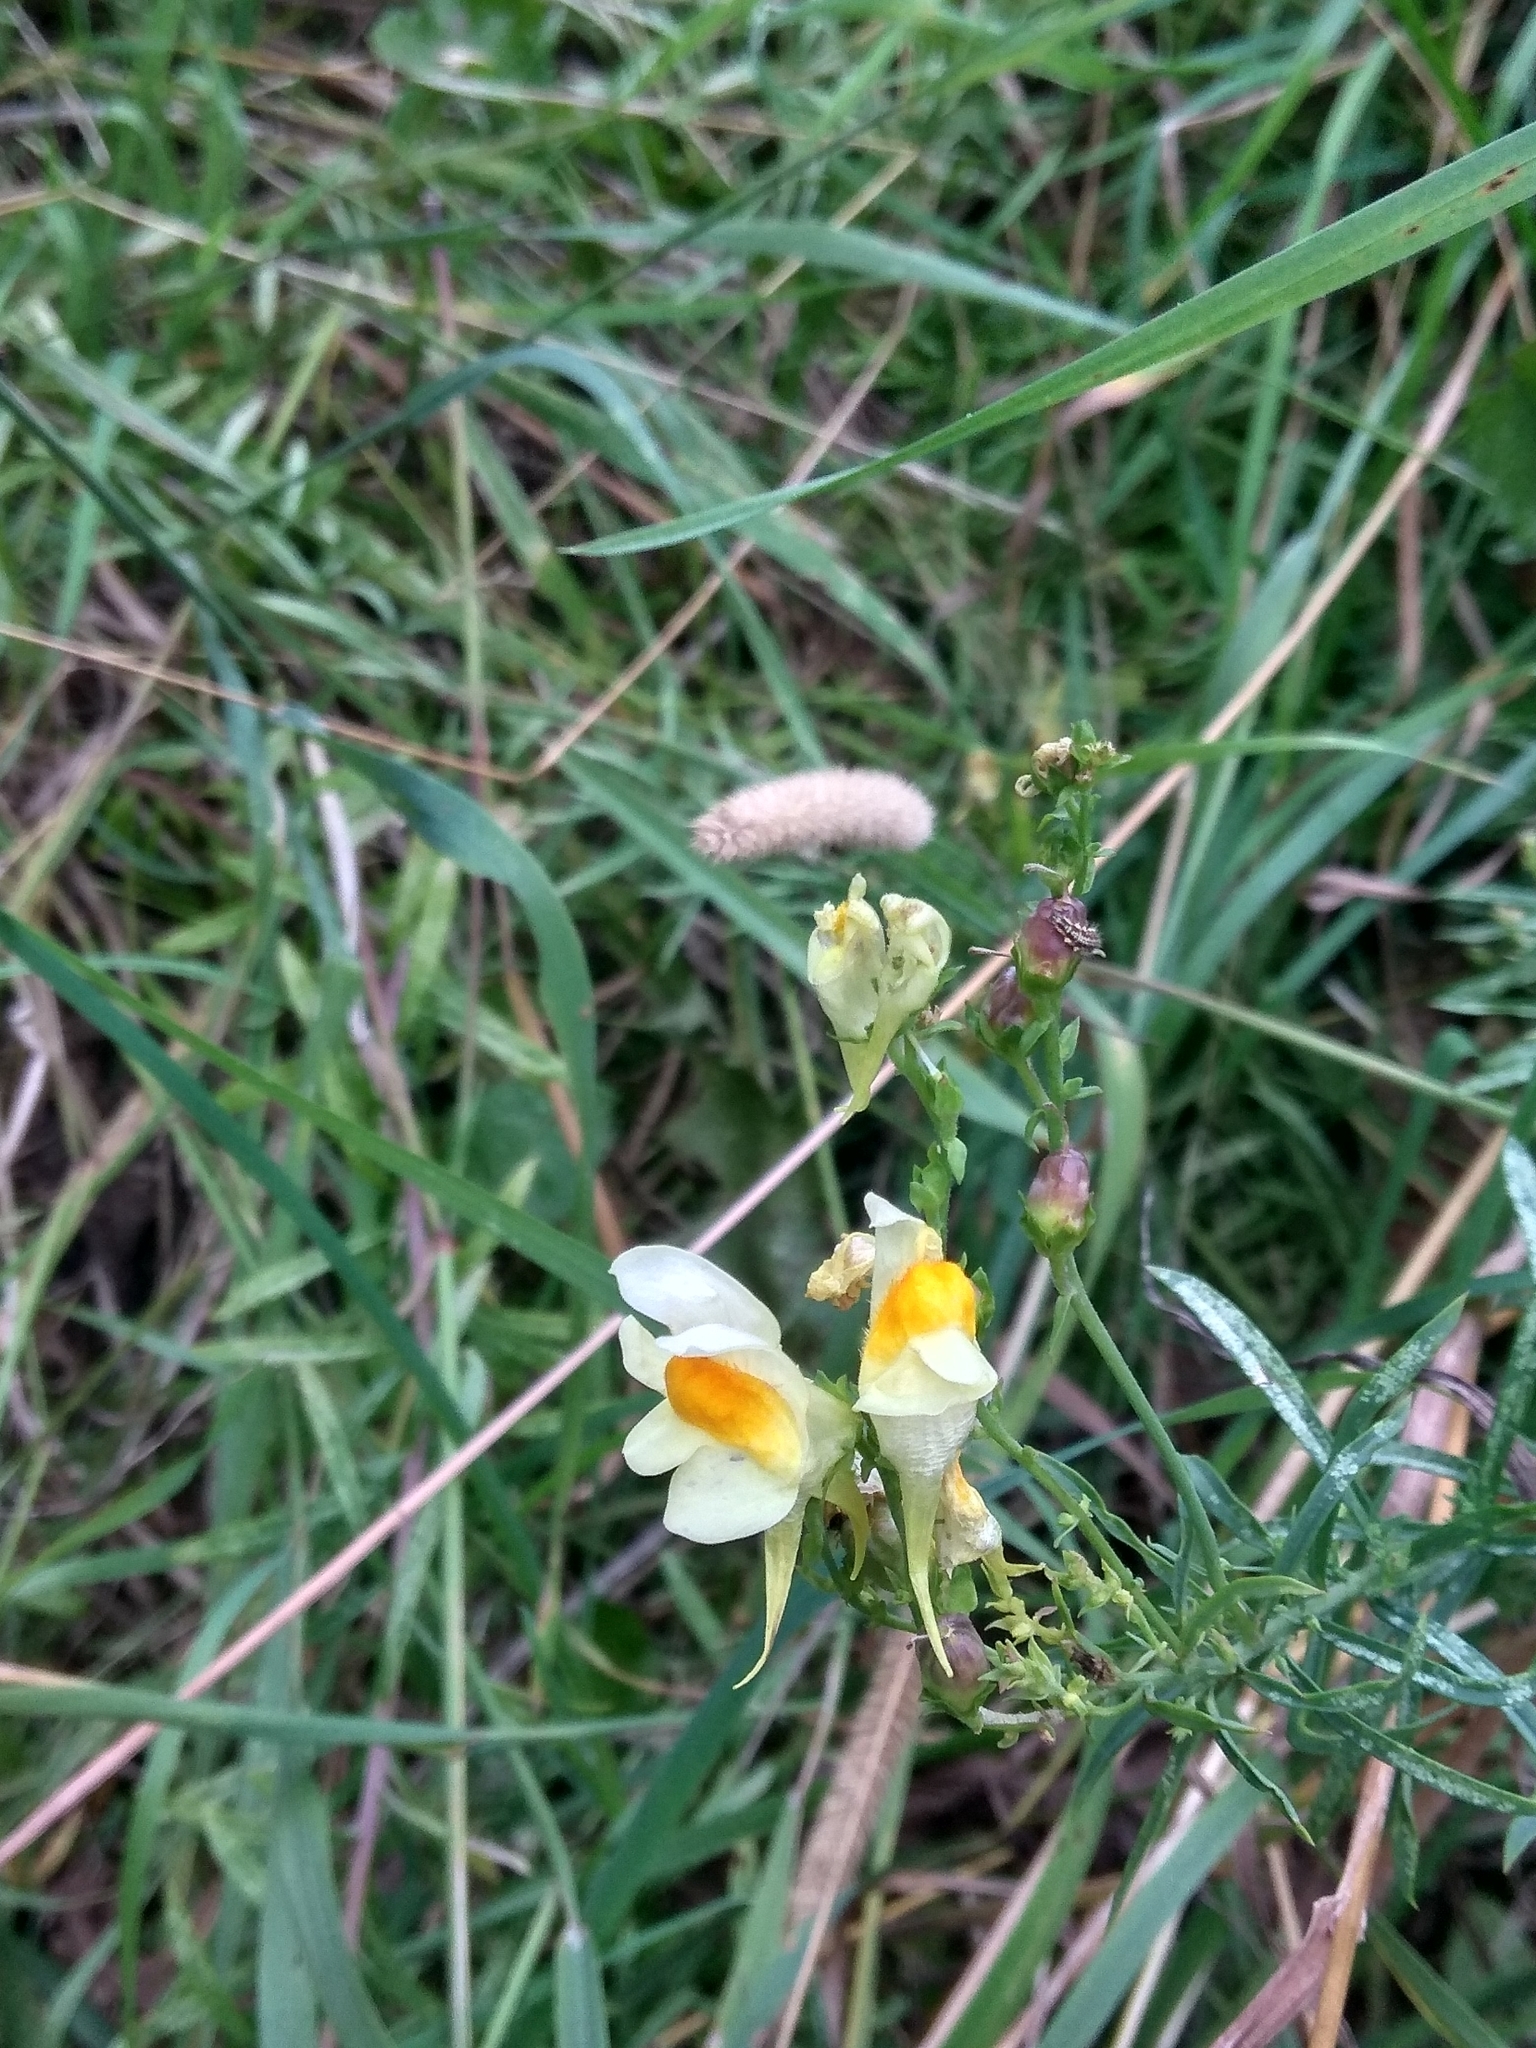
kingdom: Plantae
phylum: Tracheophyta
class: Magnoliopsida
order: Lamiales
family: Plantaginaceae
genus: Linaria
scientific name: Linaria vulgaris
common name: Butter and eggs
